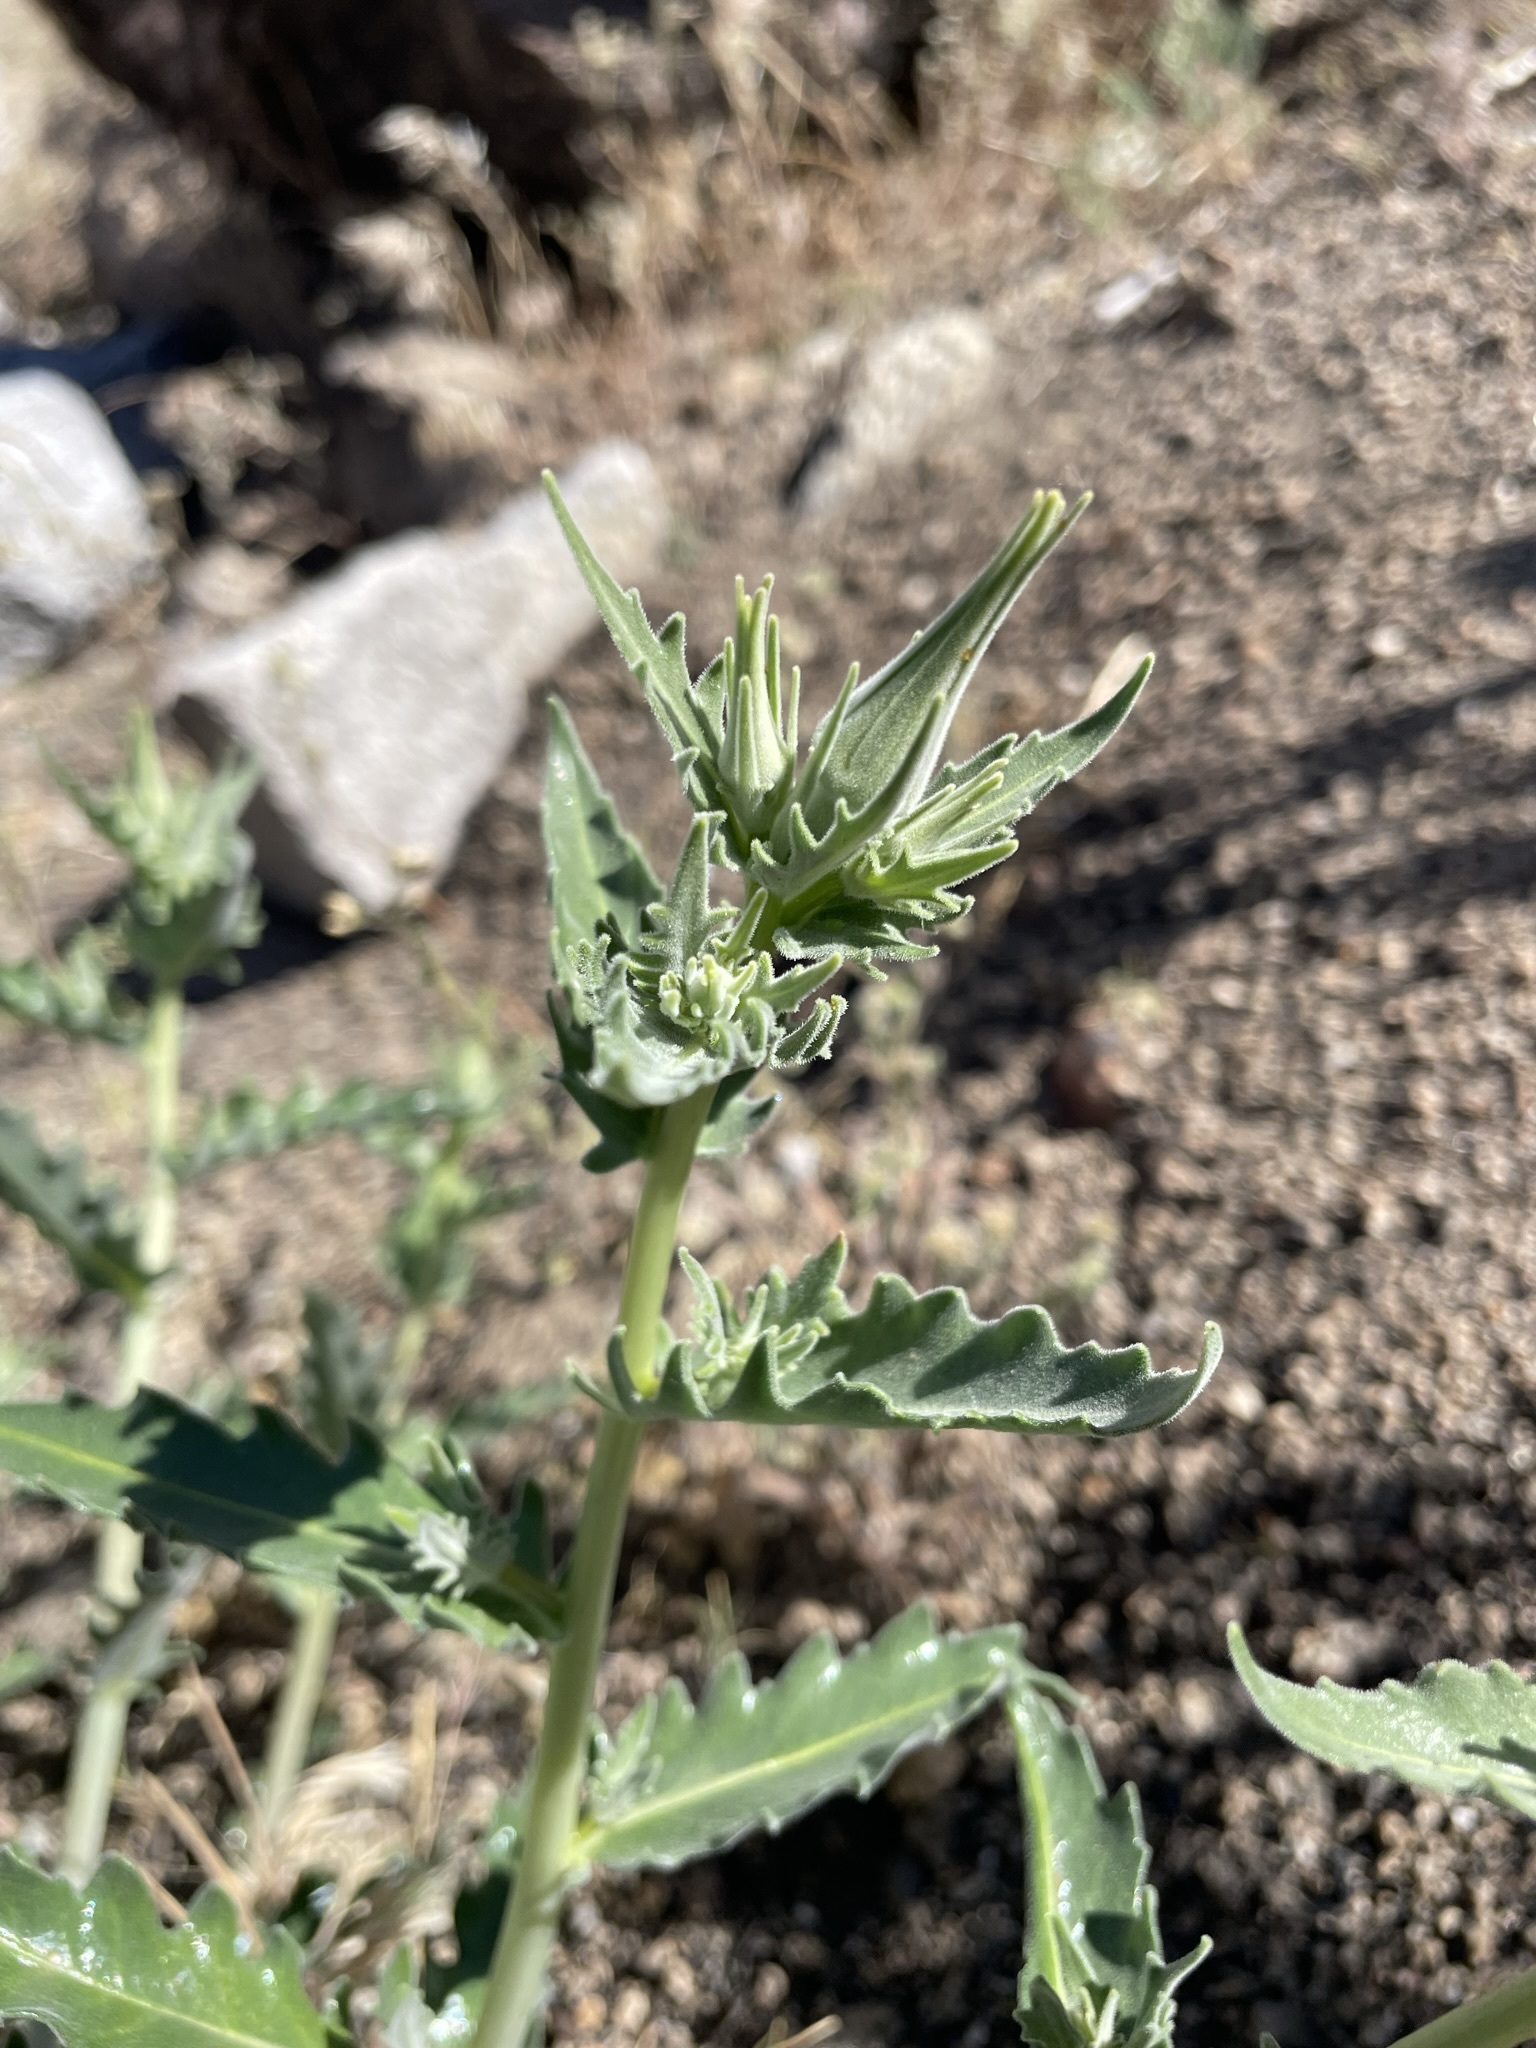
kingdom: Plantae
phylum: Tracheophyta
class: Magnoliopsida
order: Cornales
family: Loasaceae
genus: Mentzelia
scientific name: Mentzelia laevicaulis
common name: Smooth-stem blazingstar
